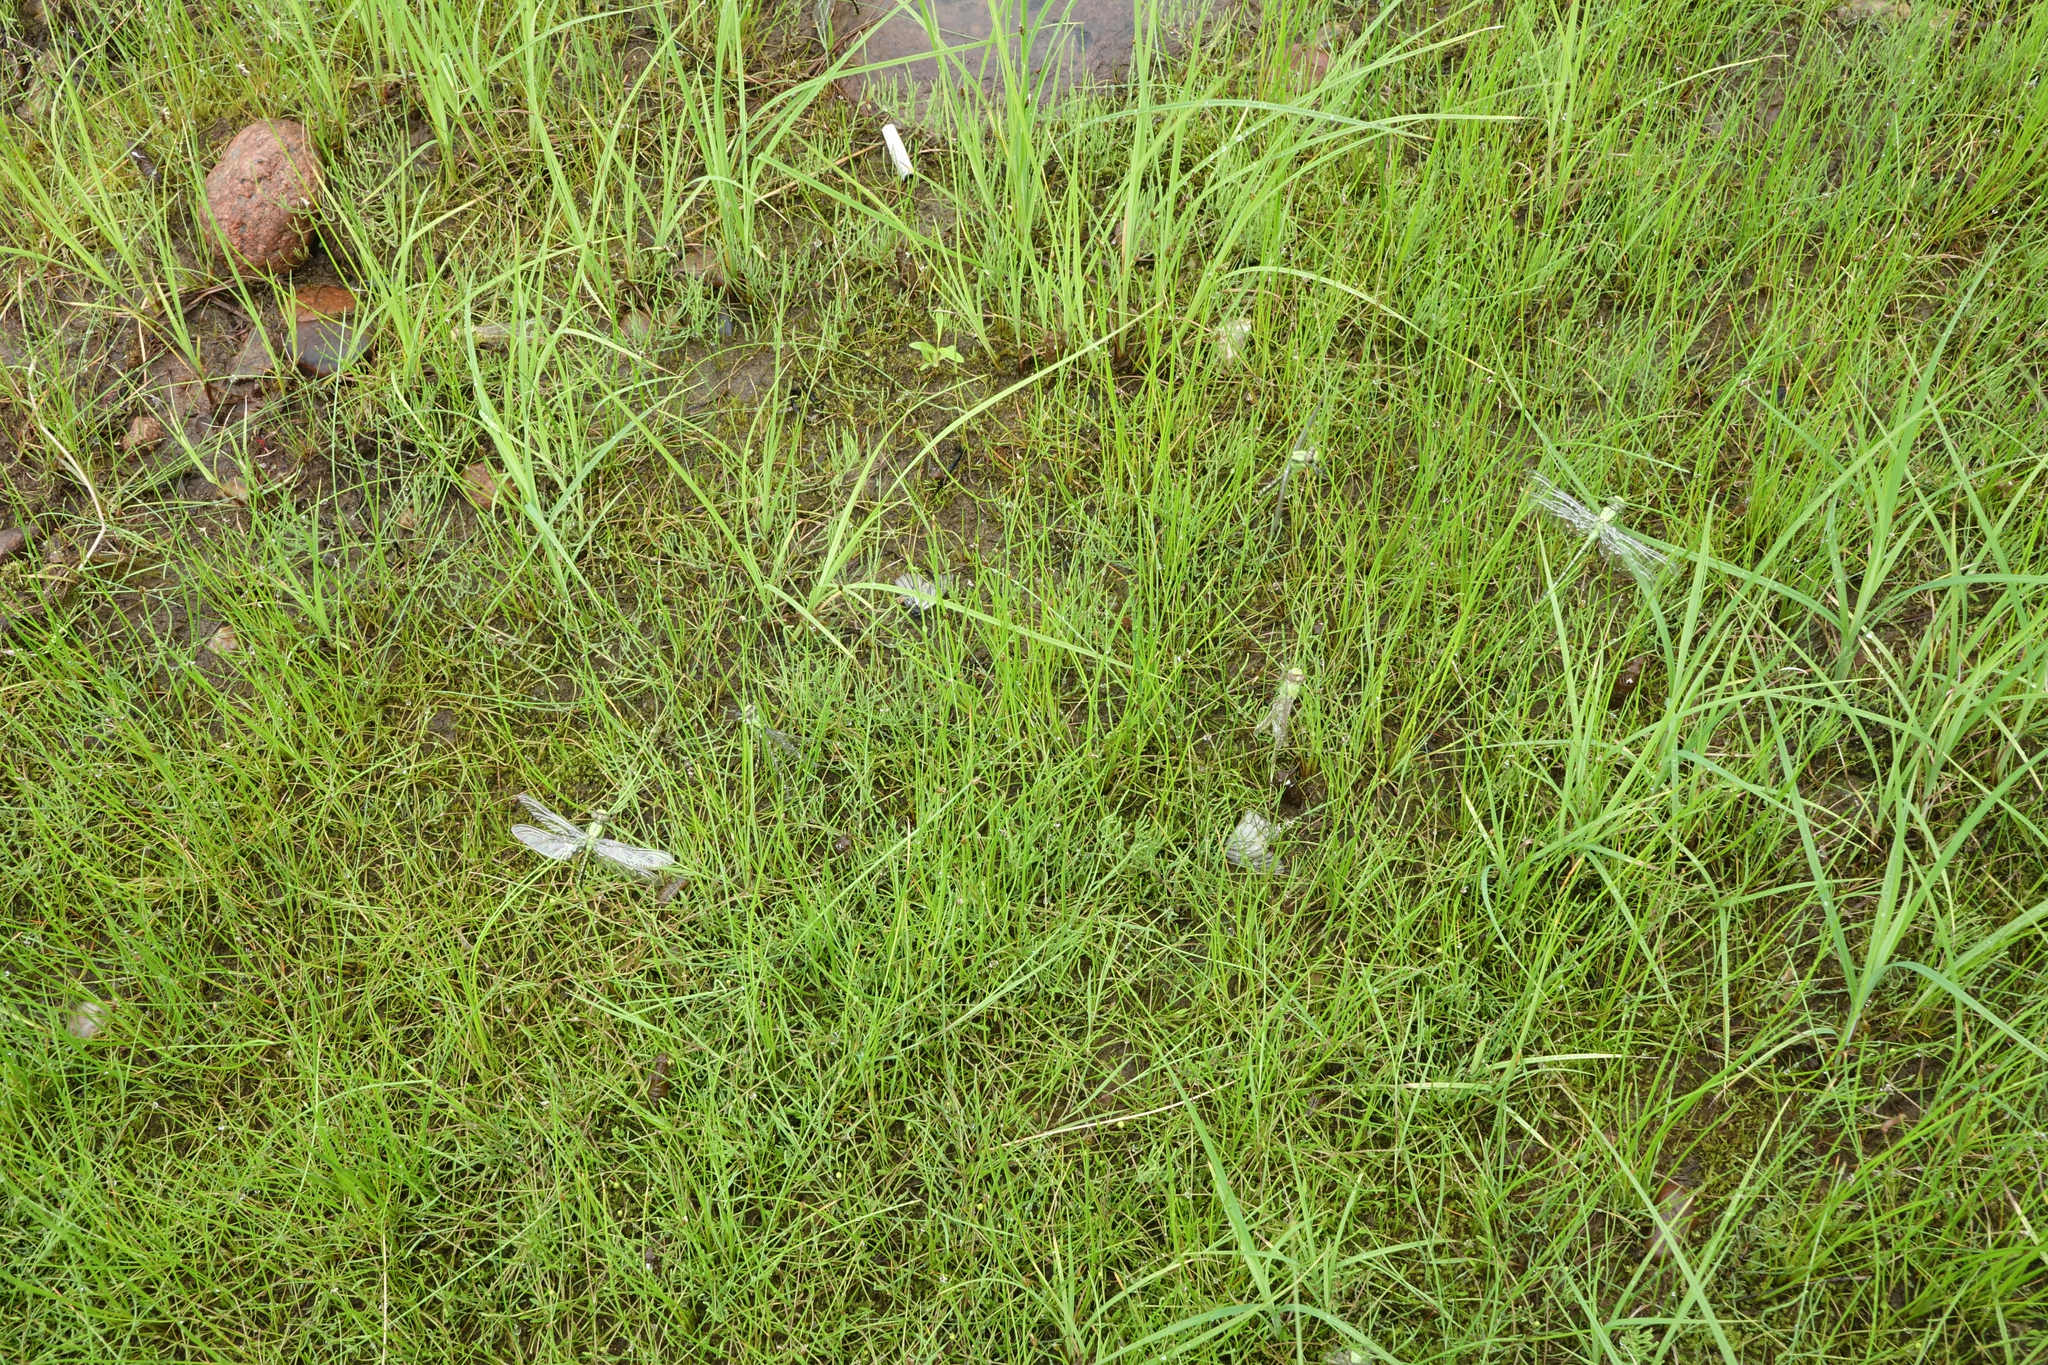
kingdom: Plantae
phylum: Tracheophyta
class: Liliopsida
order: Poales
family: Cyperaceae
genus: Eleocharis
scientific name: Eleocharis palustris
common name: Common spike-rush
